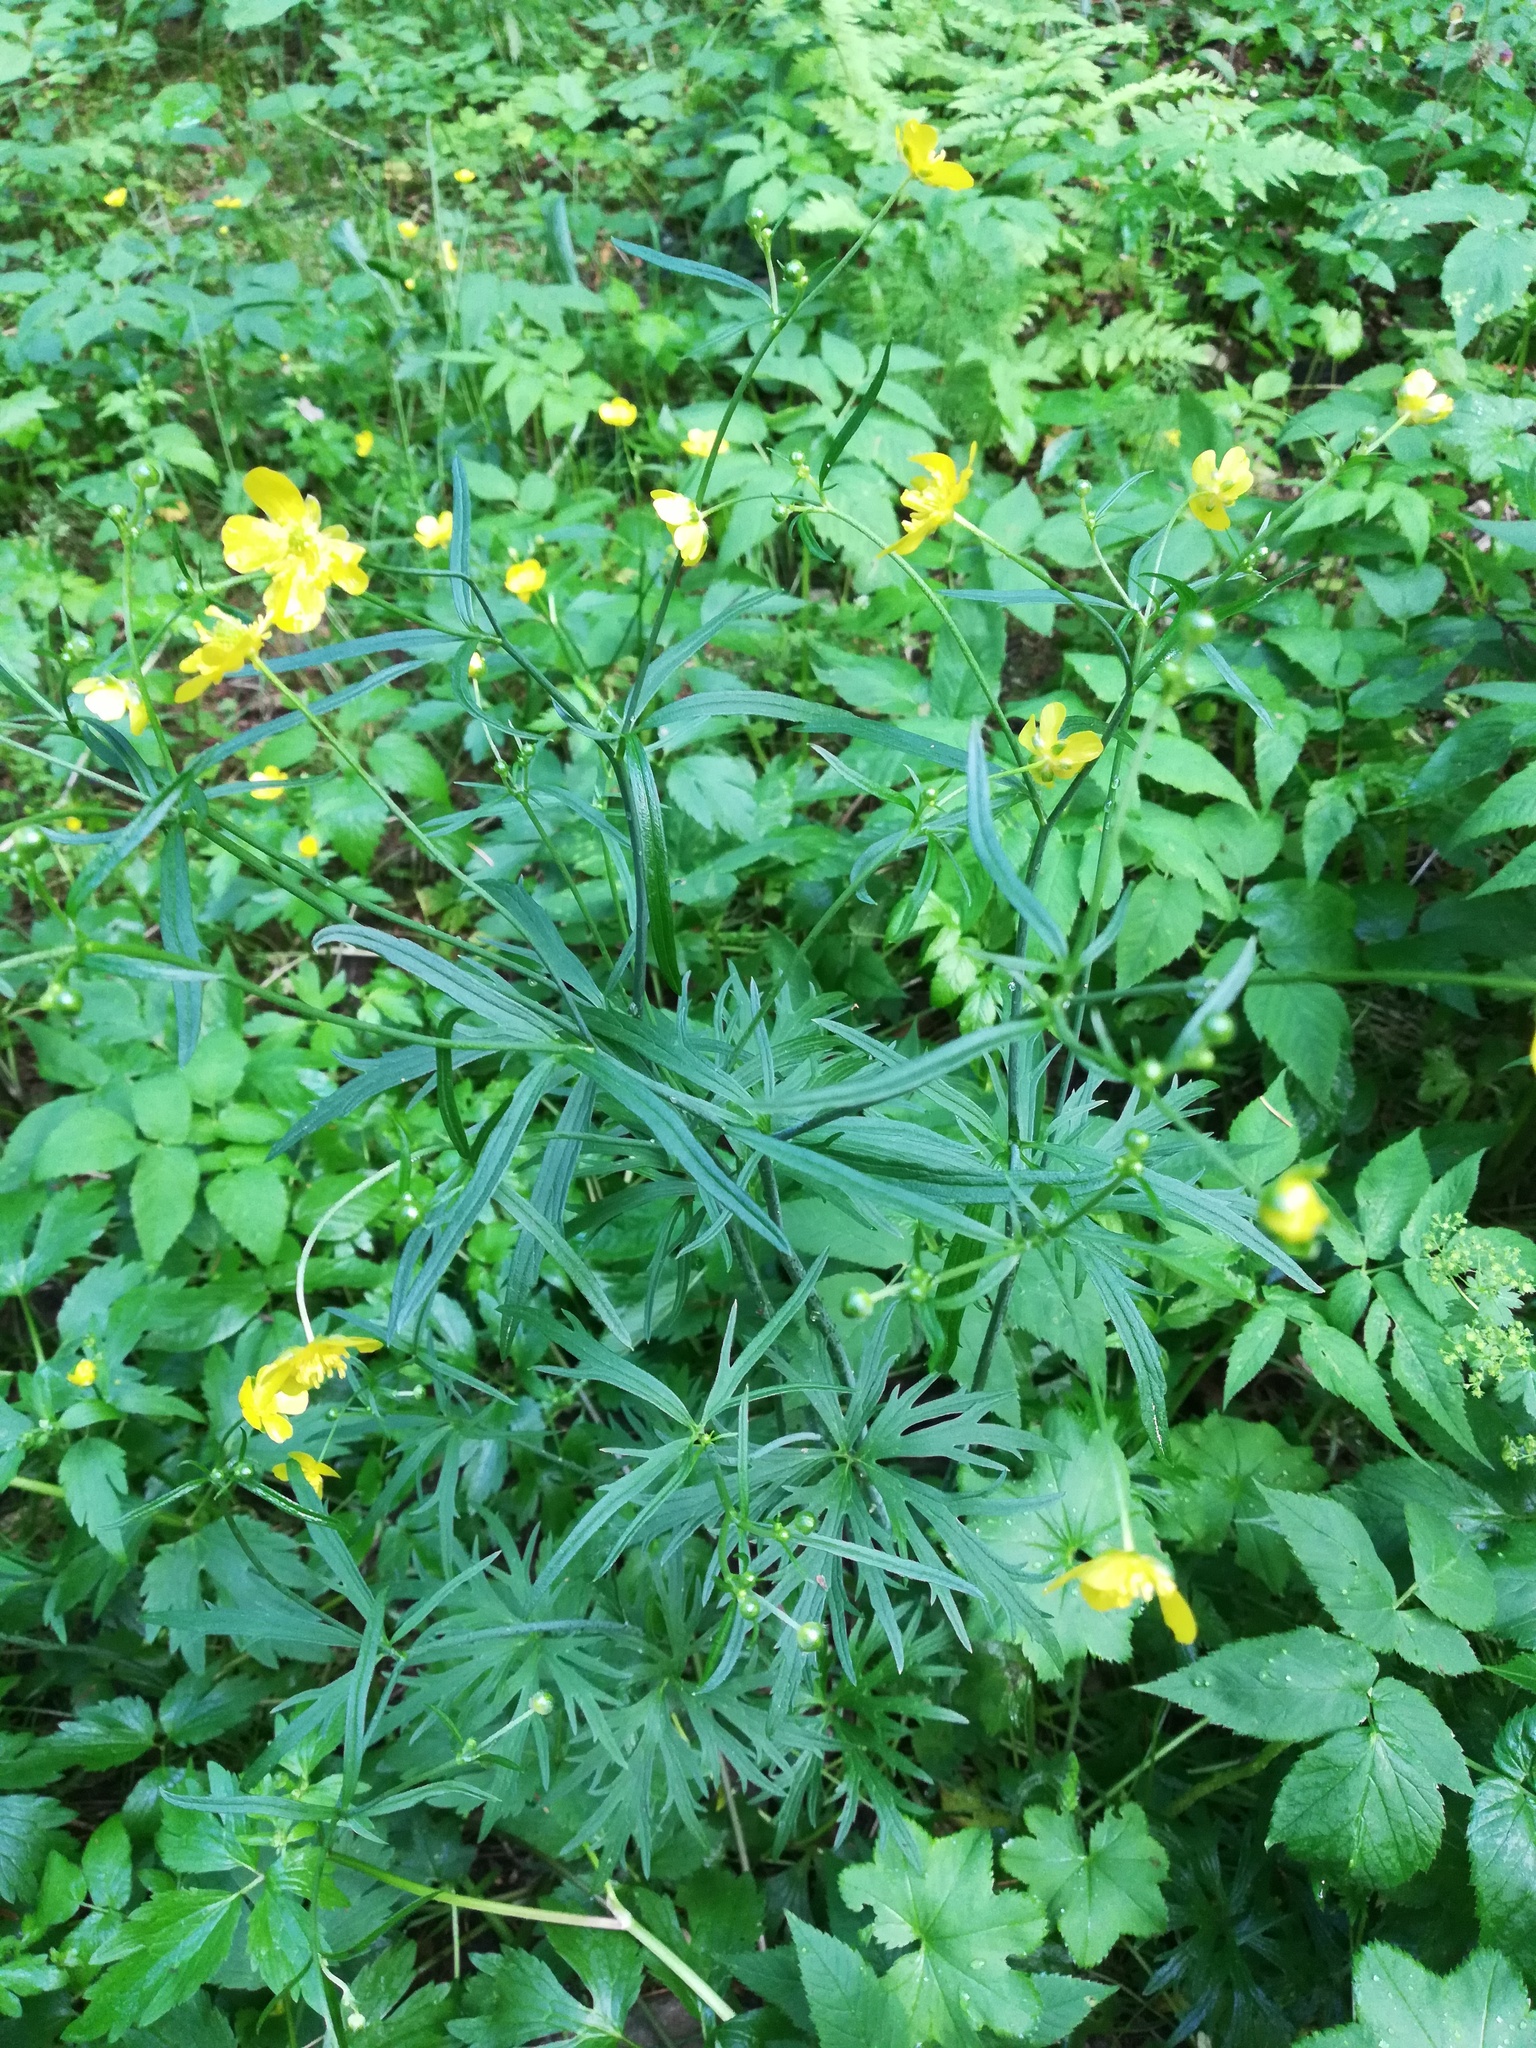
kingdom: Plantae
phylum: Tracheophyta
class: Magnoliopsida
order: Ranunculales
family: Ranunculaceae
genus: Ranunculus
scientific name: Ranunculus acris
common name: Meadow buttercup
